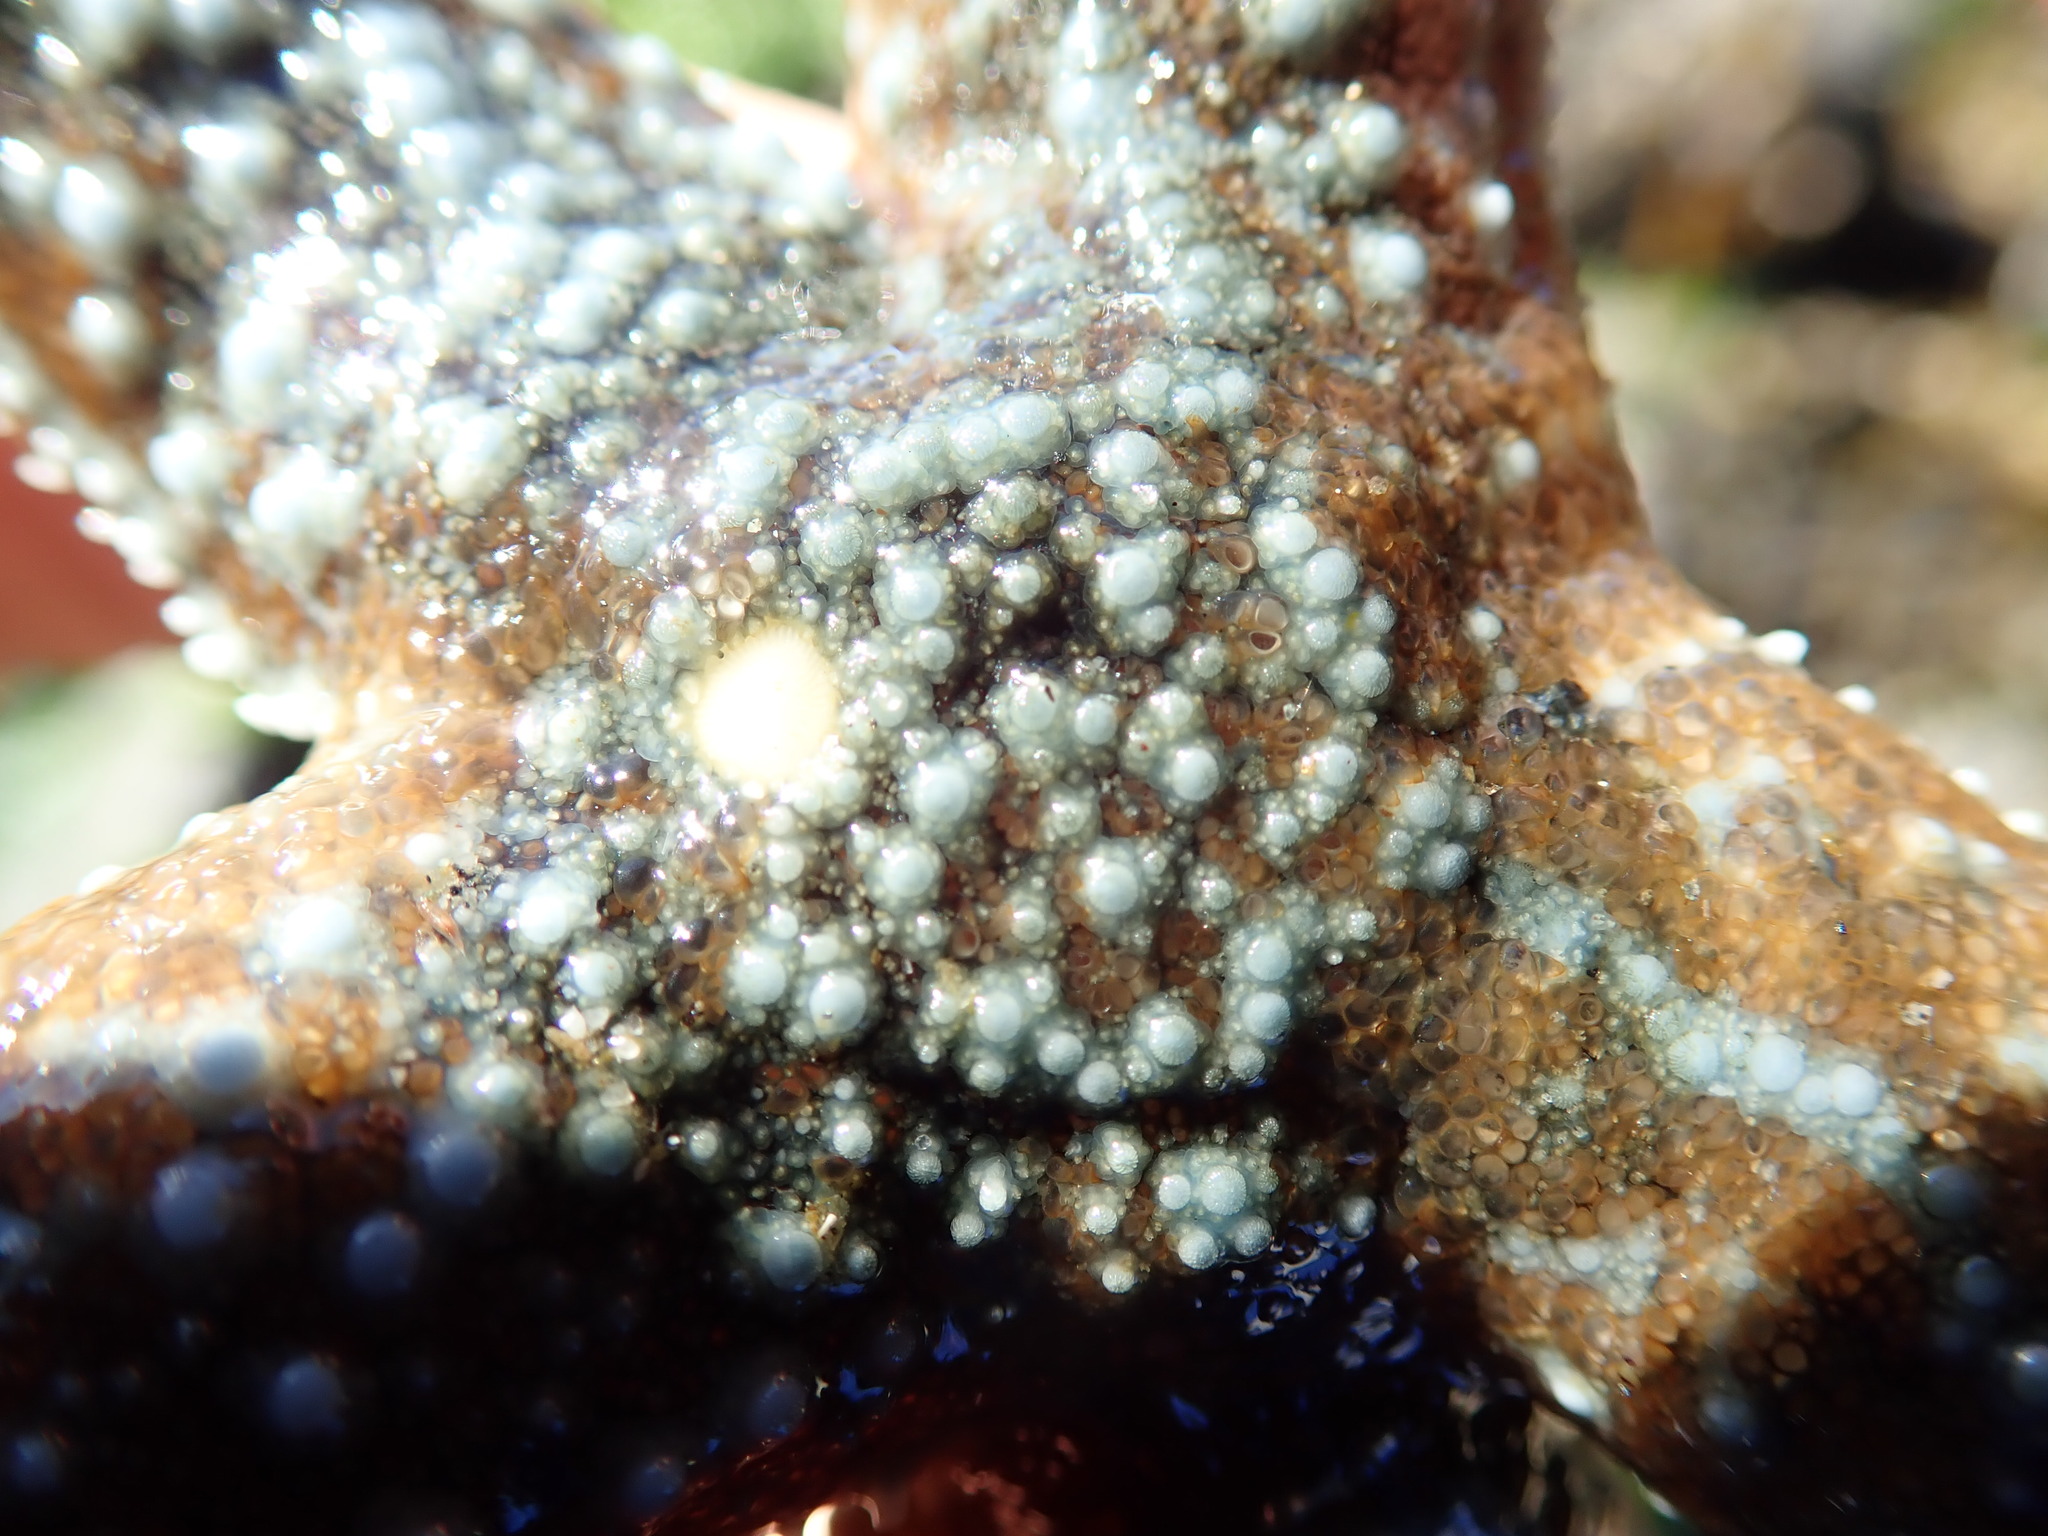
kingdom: Animalia
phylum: Echinodermata
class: Asteroidea
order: Forcipulatida
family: Asteriidae
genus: Evasterias
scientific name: Evasterias troschelii
